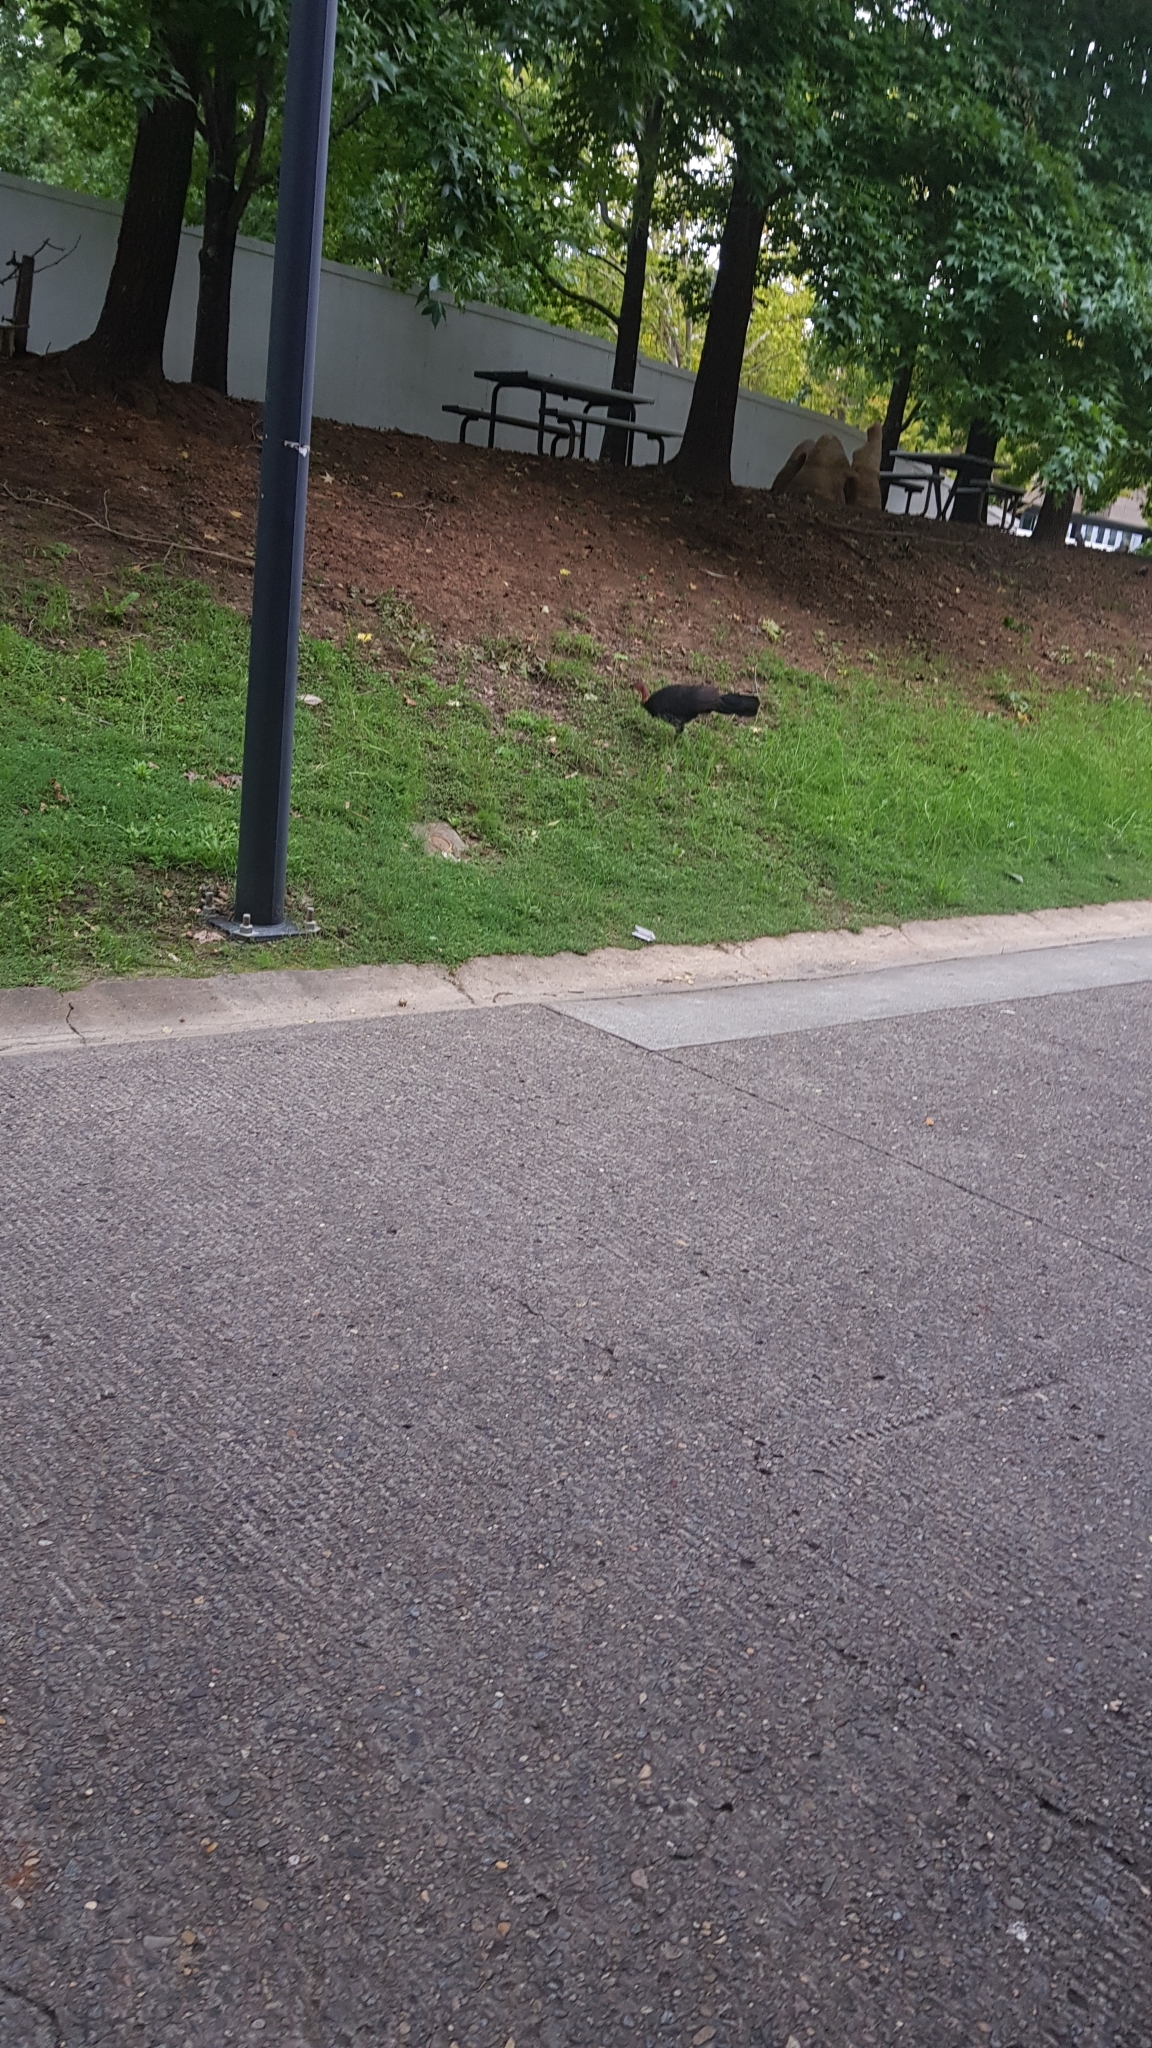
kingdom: Animalia
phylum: Chordata
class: Aves
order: Galliformes
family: Megapodiidae
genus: Alectura
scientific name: Alectura lathami
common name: Australian brushturkey
